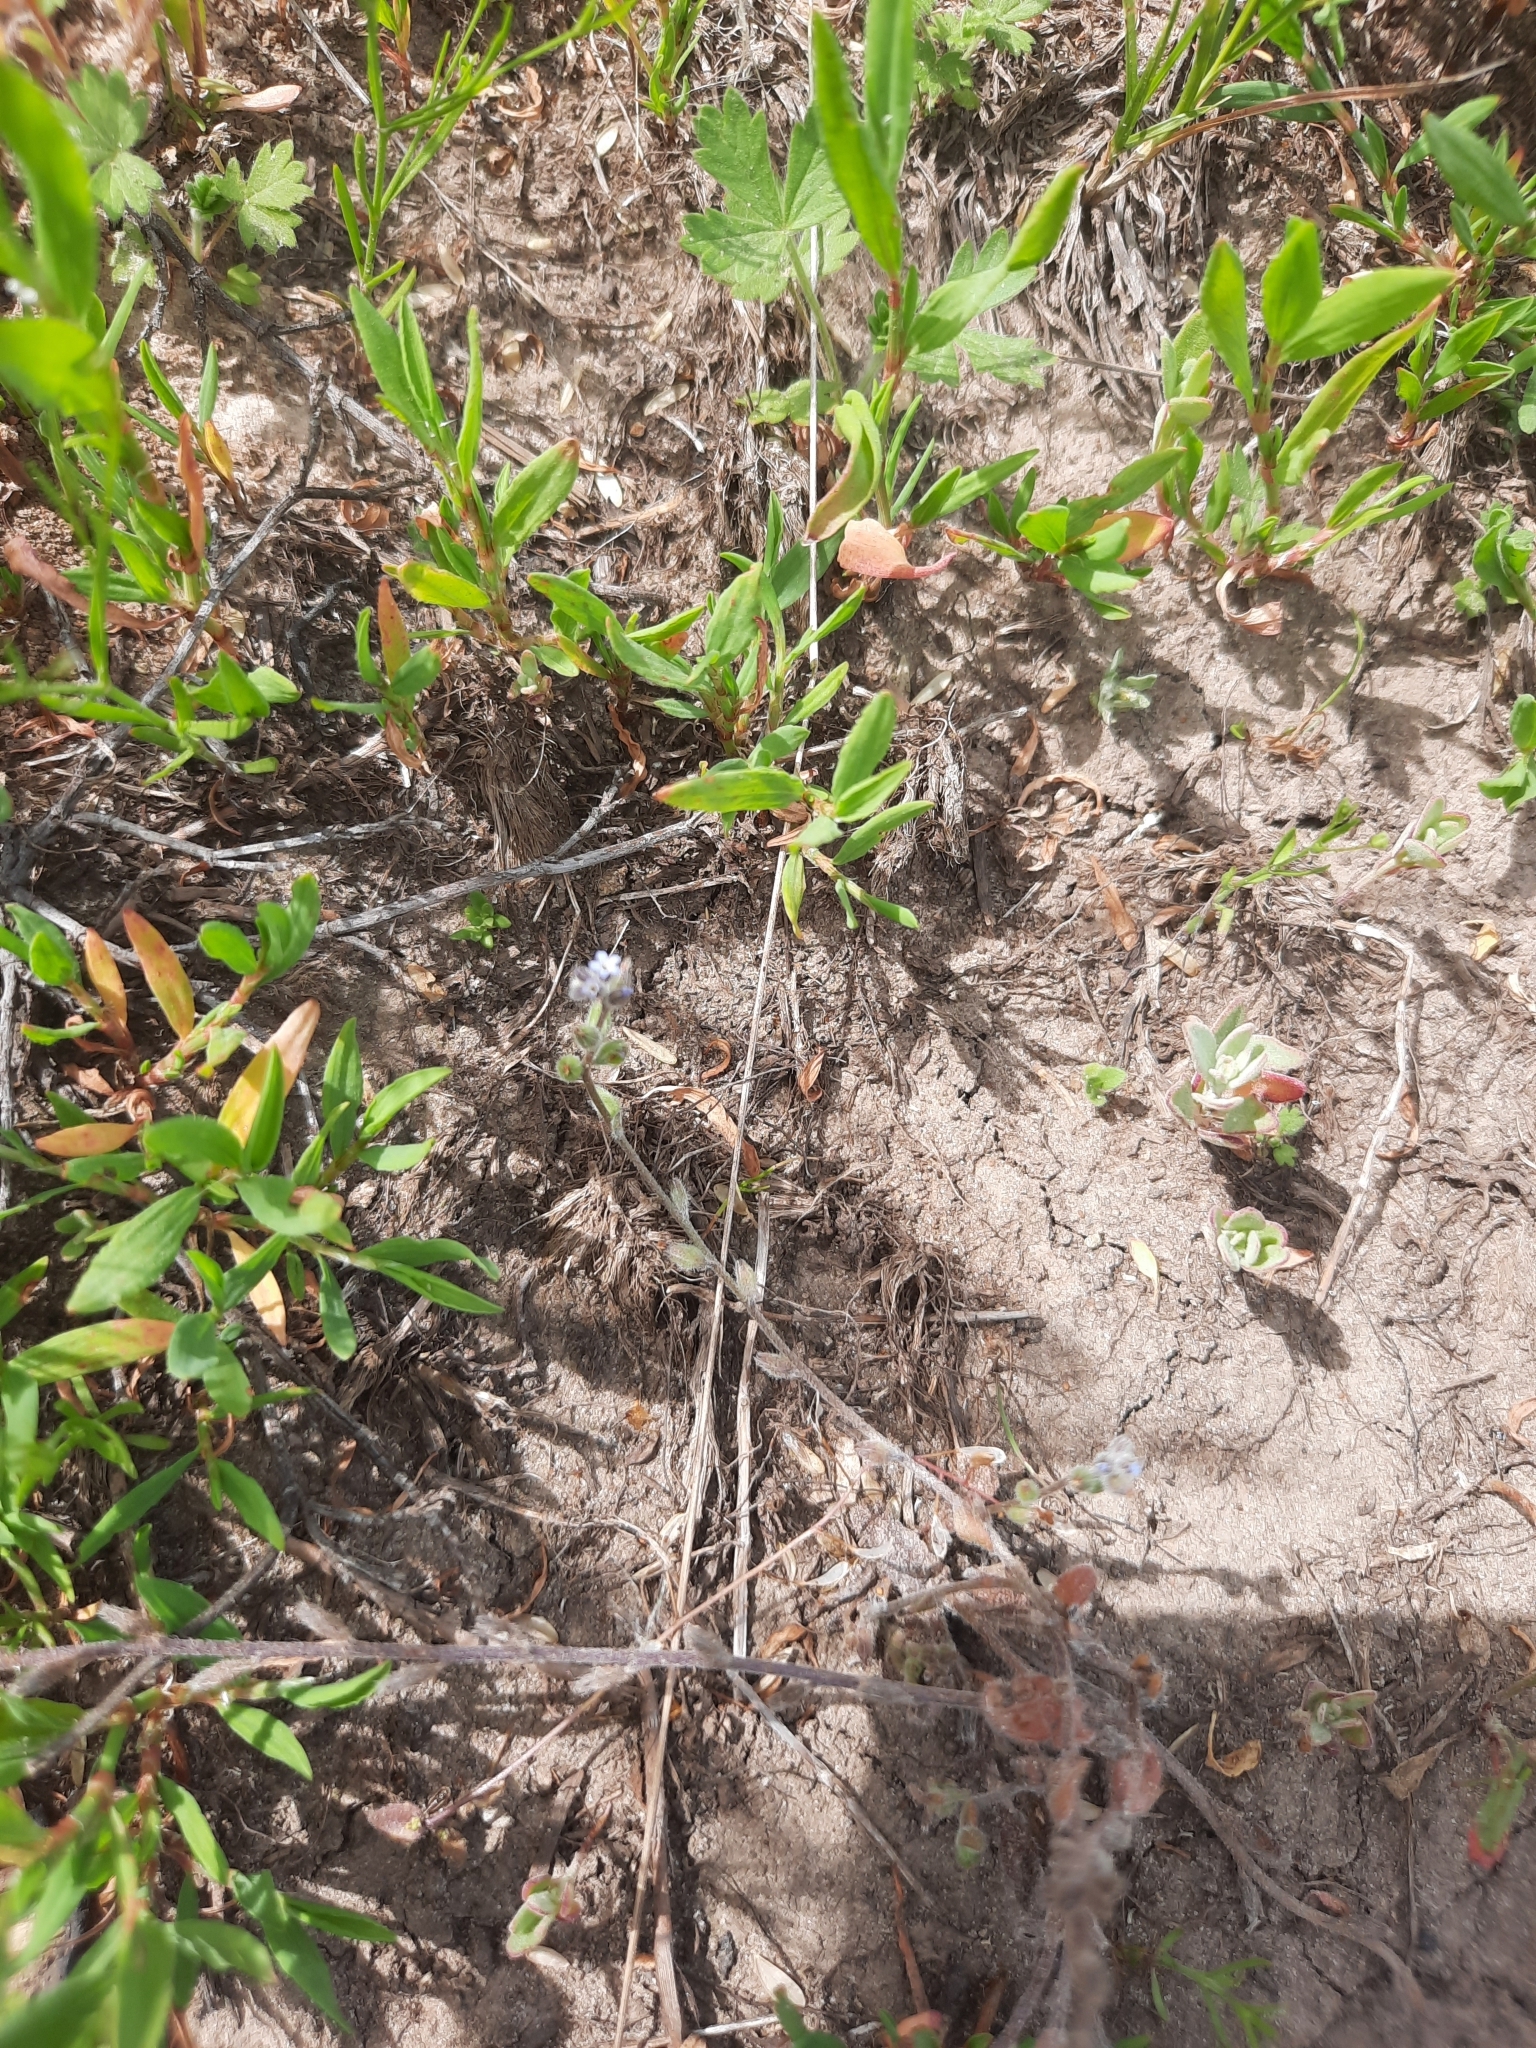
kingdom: Plantae
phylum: Tracheophyta
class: Magnoliopsida
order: Boraginales
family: Boraginaceae
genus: Myosotis
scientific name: Myosotis stricta
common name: Strict forget-me-not
